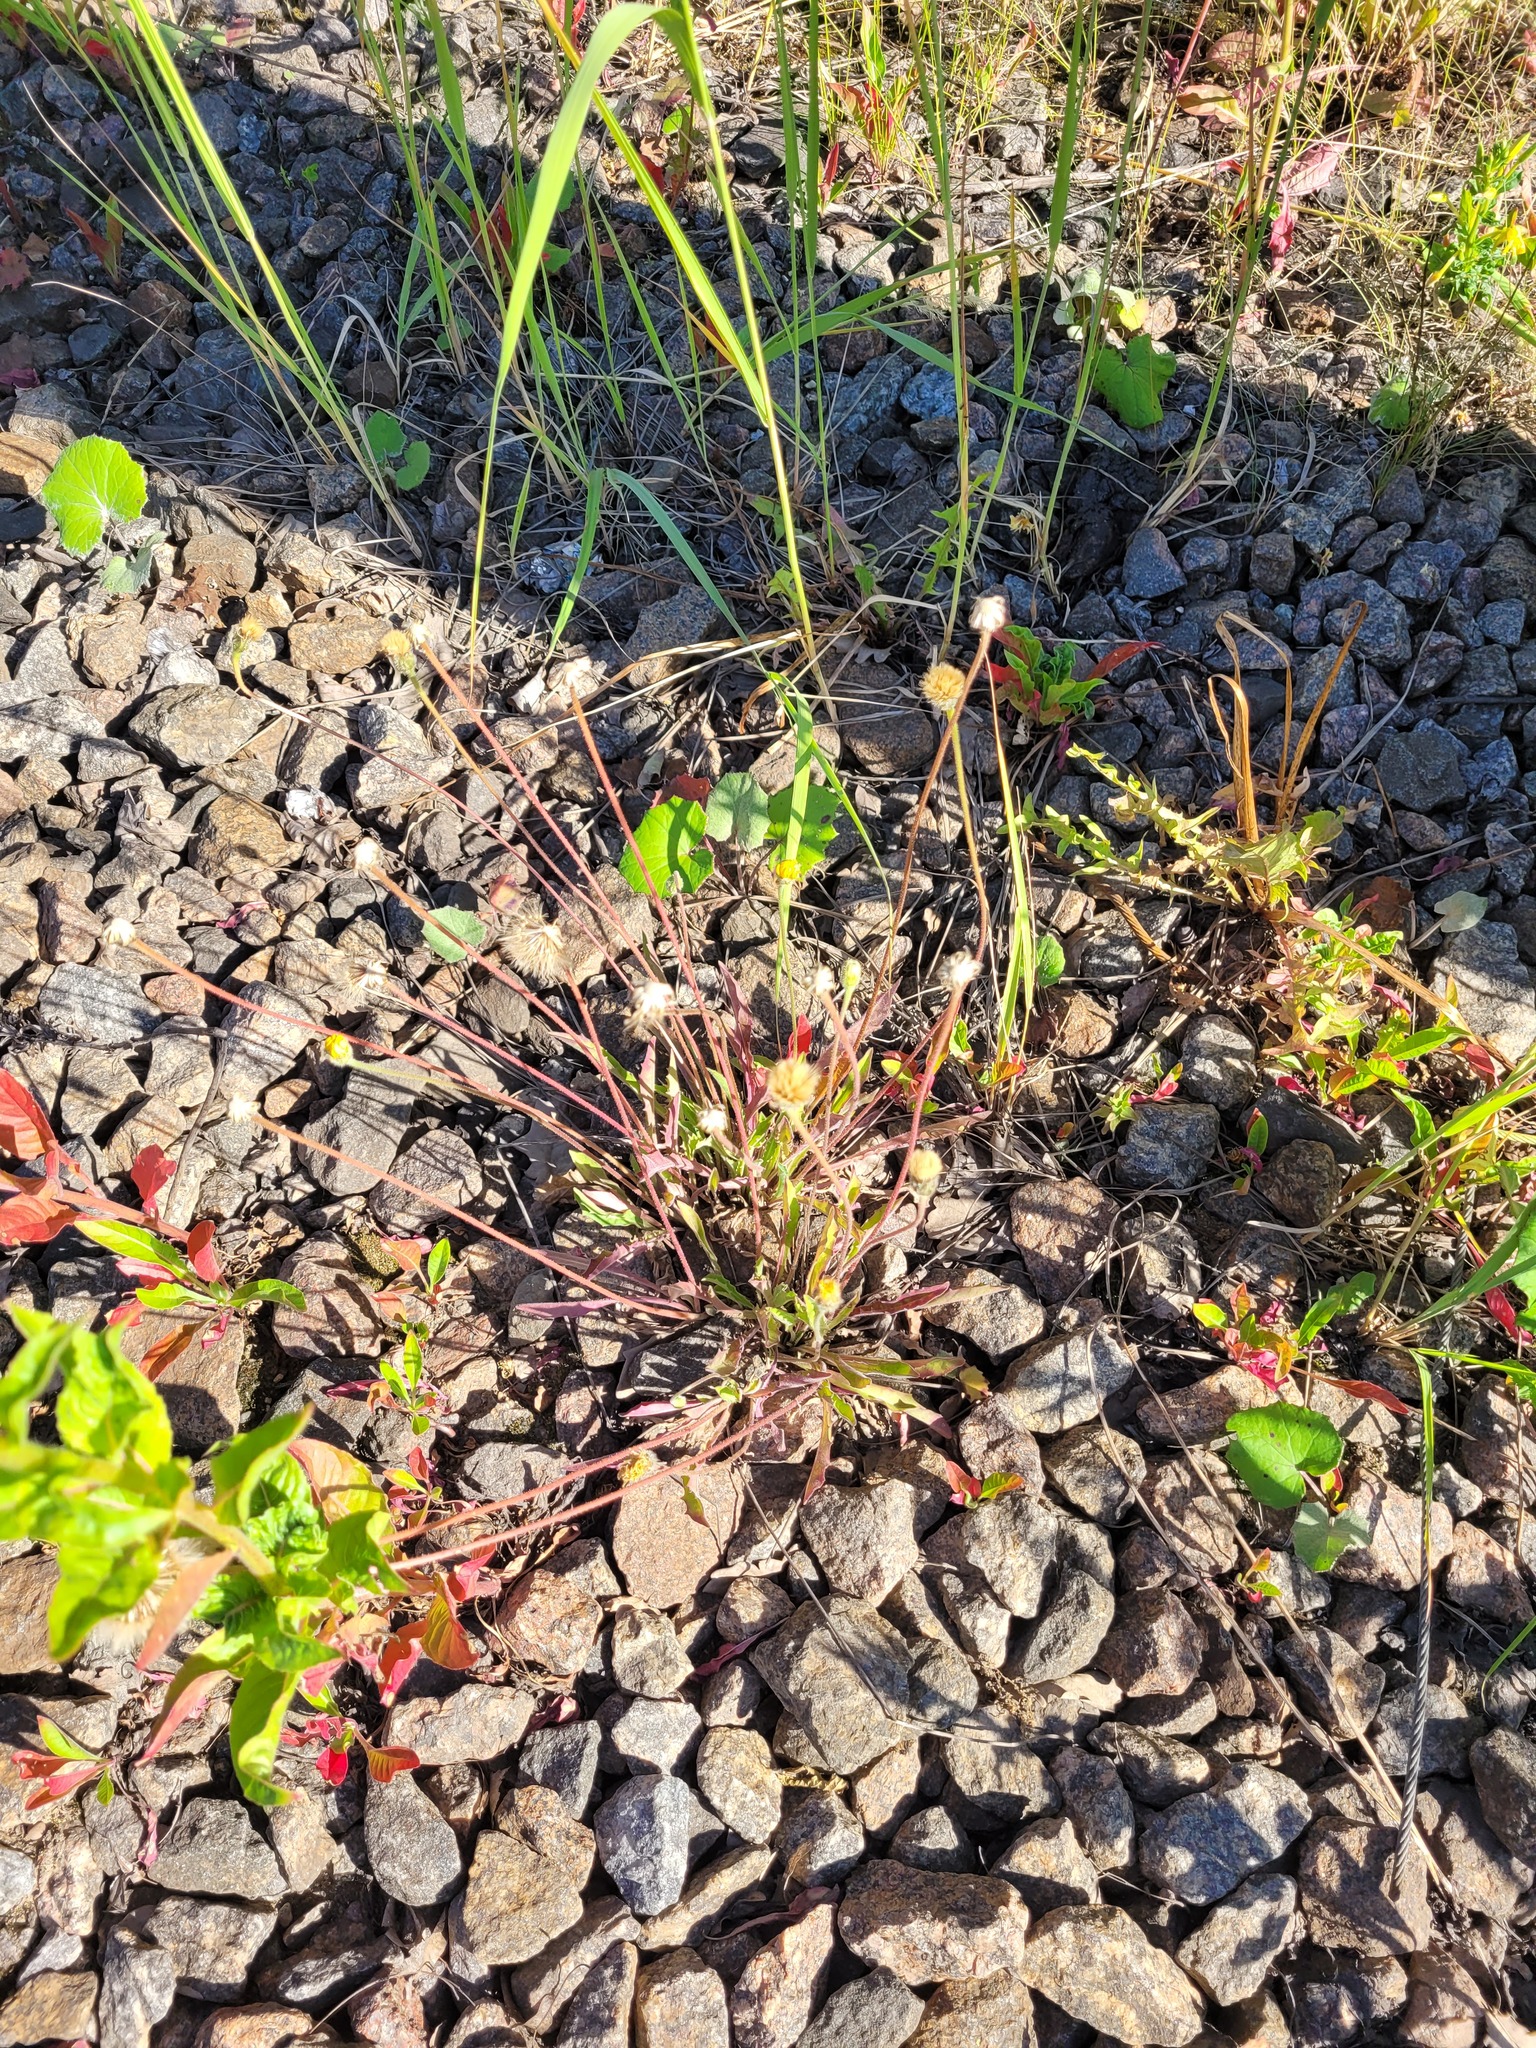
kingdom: Plantae
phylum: Tracheophyta
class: Magnoliopsida
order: Asterales
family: Asteraceae
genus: Leontodon
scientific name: Leontodon hispidus
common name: Rough hawkbit
